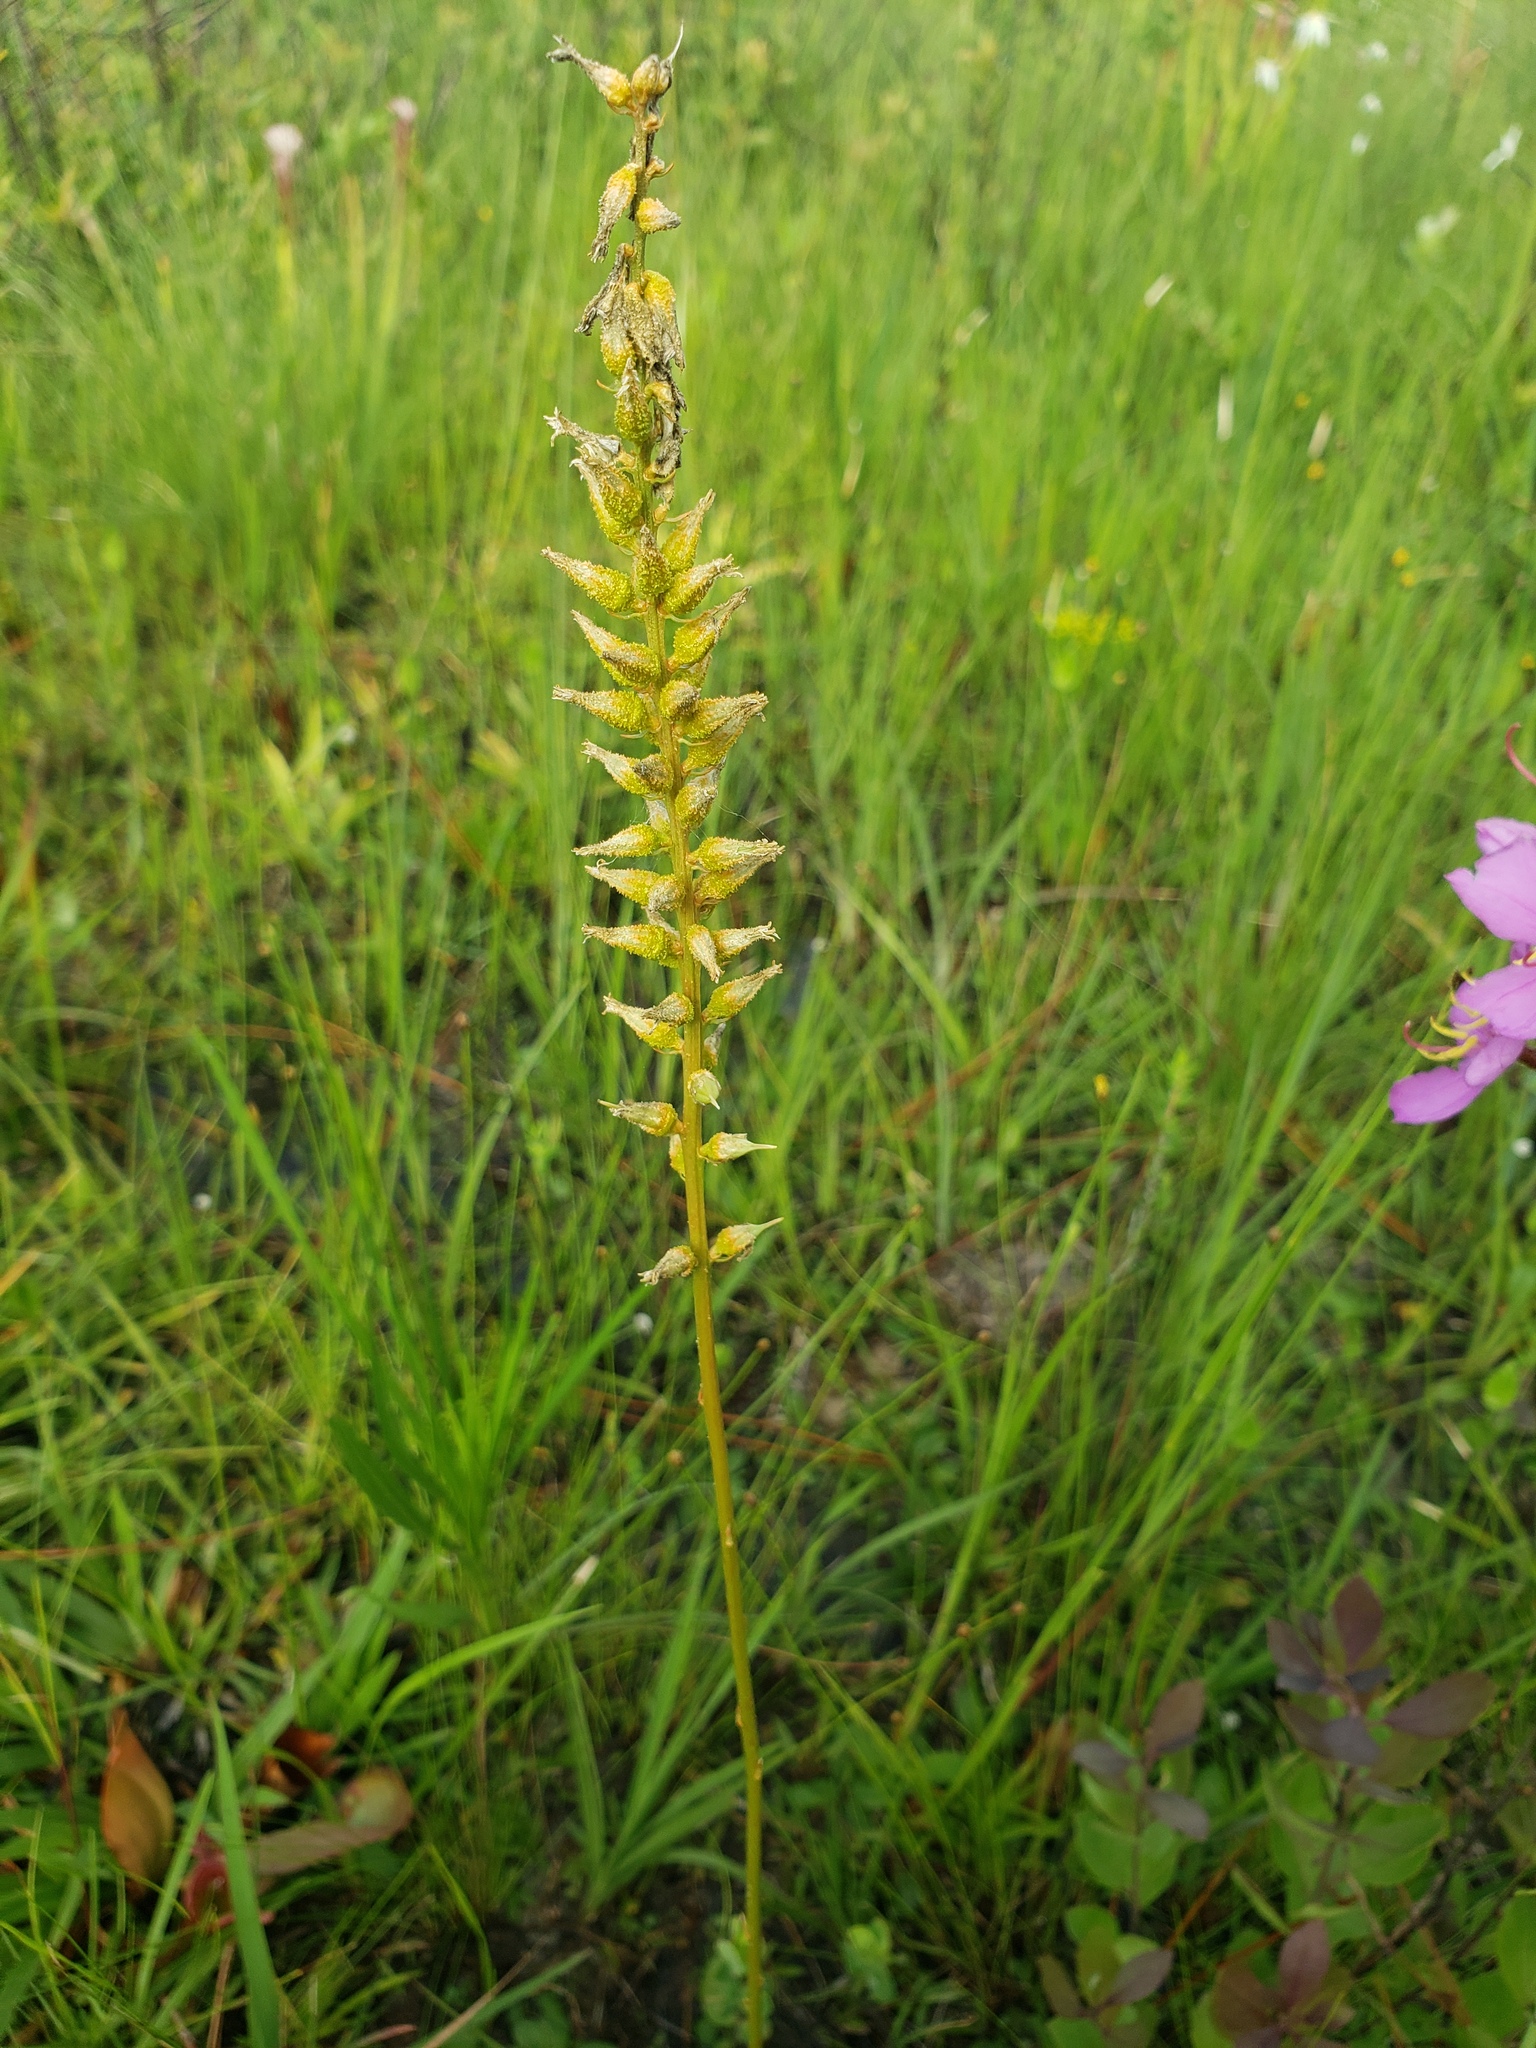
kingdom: Plantae
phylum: Tracheophyta
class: Liliopsida
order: Dioscoreales
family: Nartheciaceae
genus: Aletris
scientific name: Aletris lutea
